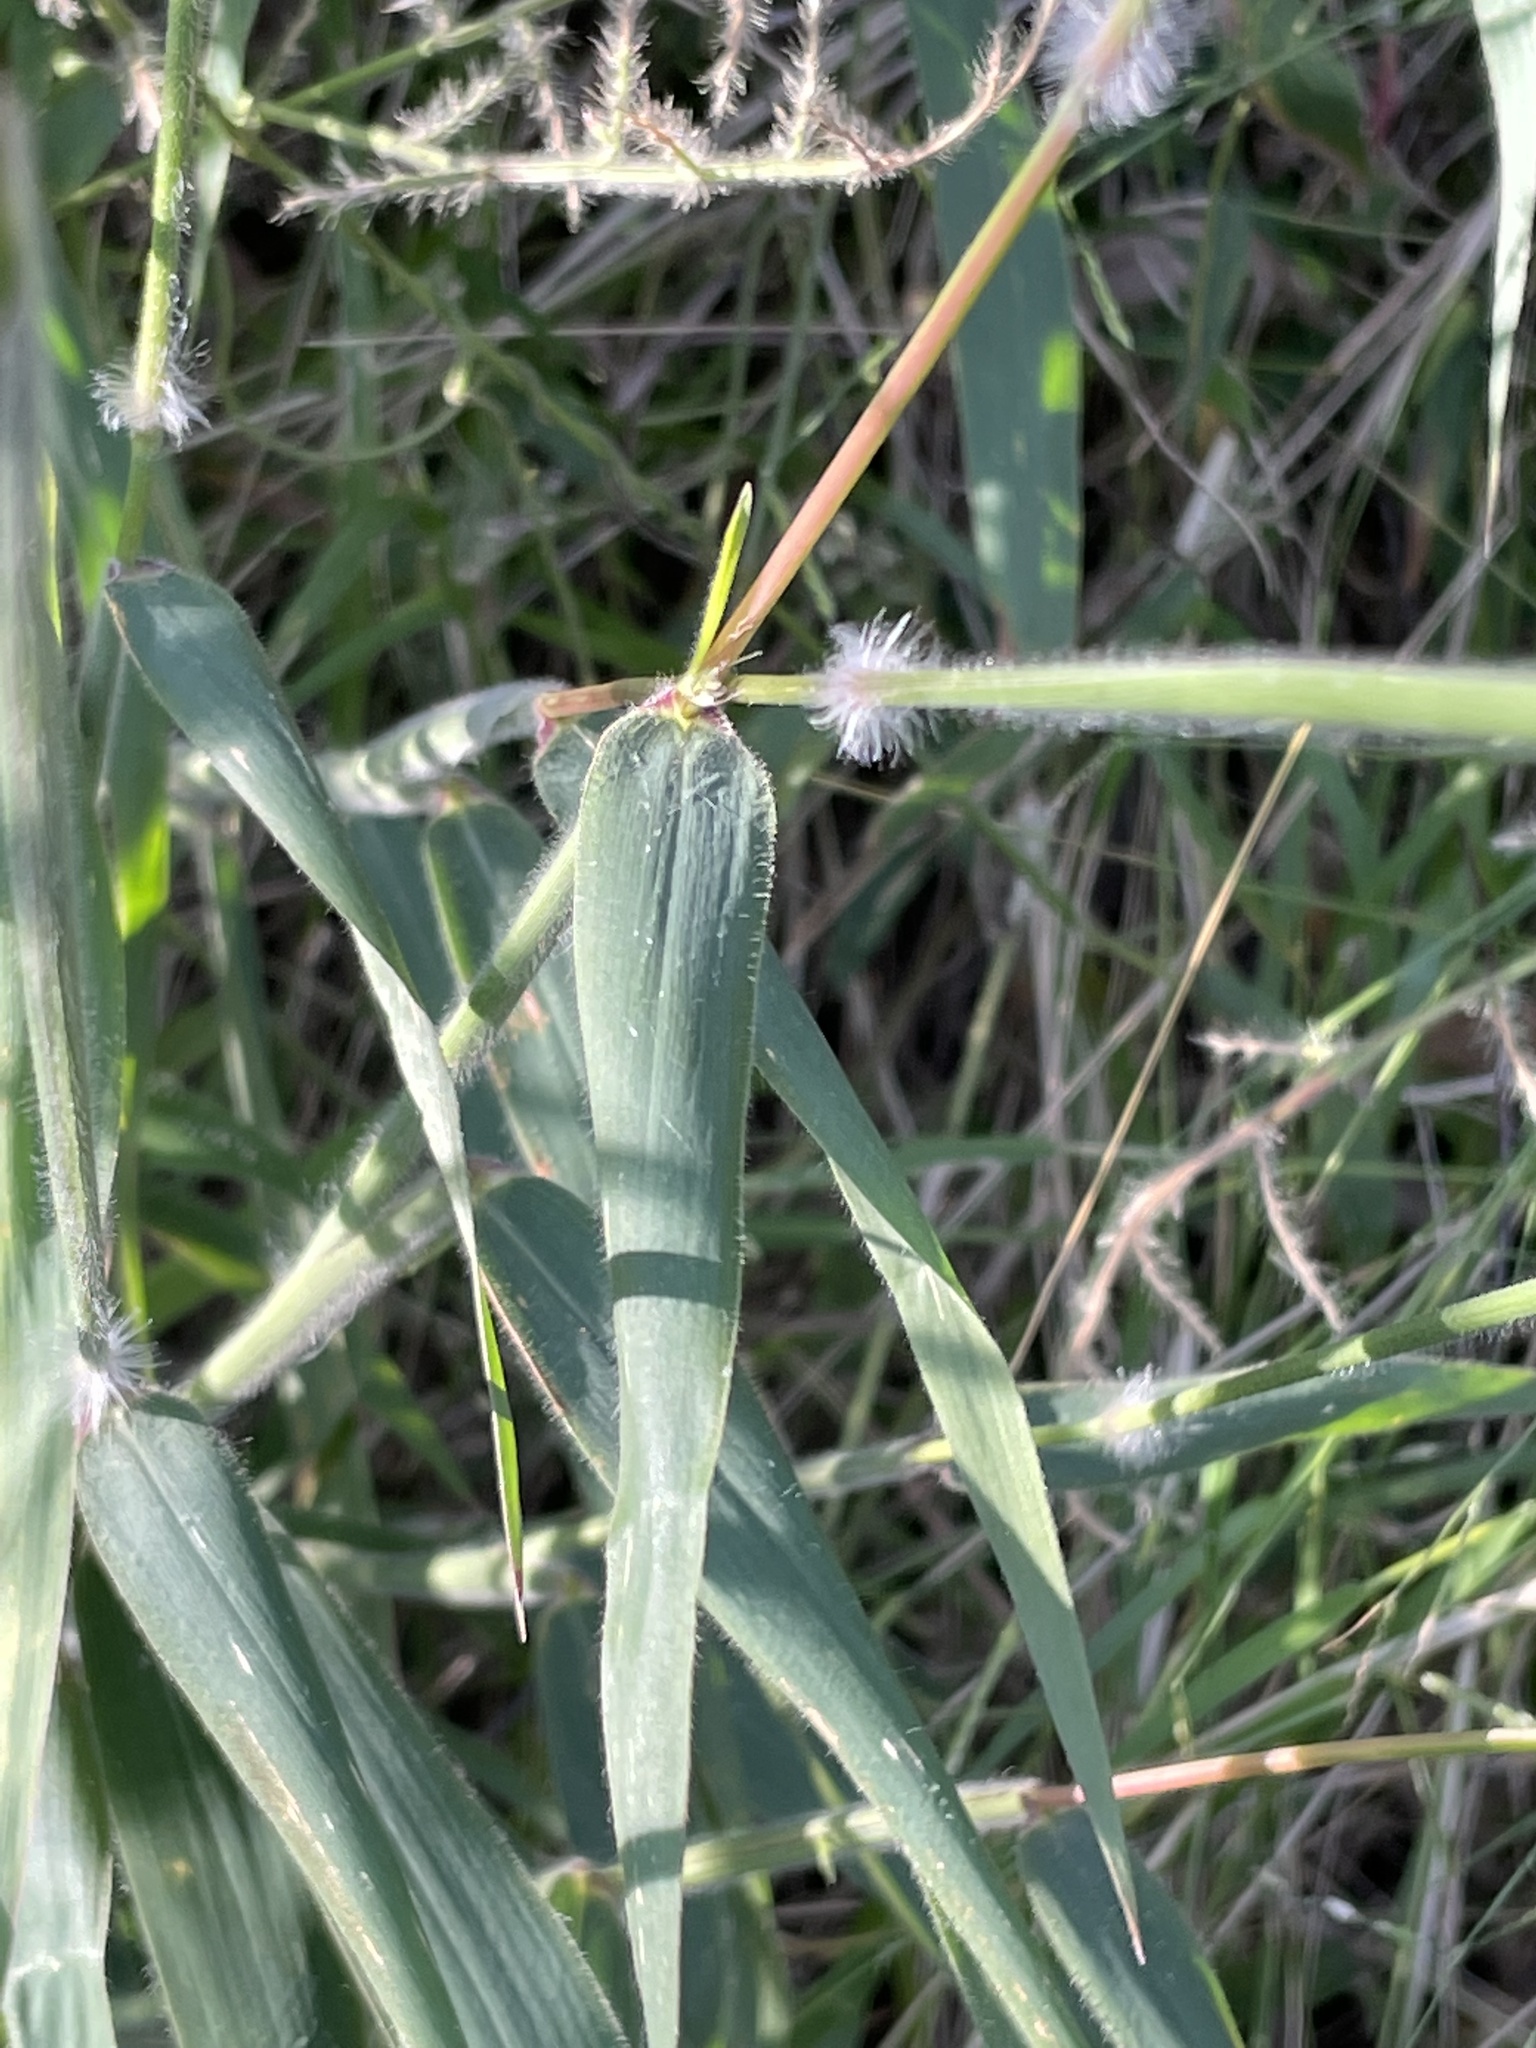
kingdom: Plantae
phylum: Tracheophyta
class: Liliopsida
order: Poales
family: Poaceae
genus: Melinis
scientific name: Melinis minutiflora
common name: Molassesgrass
